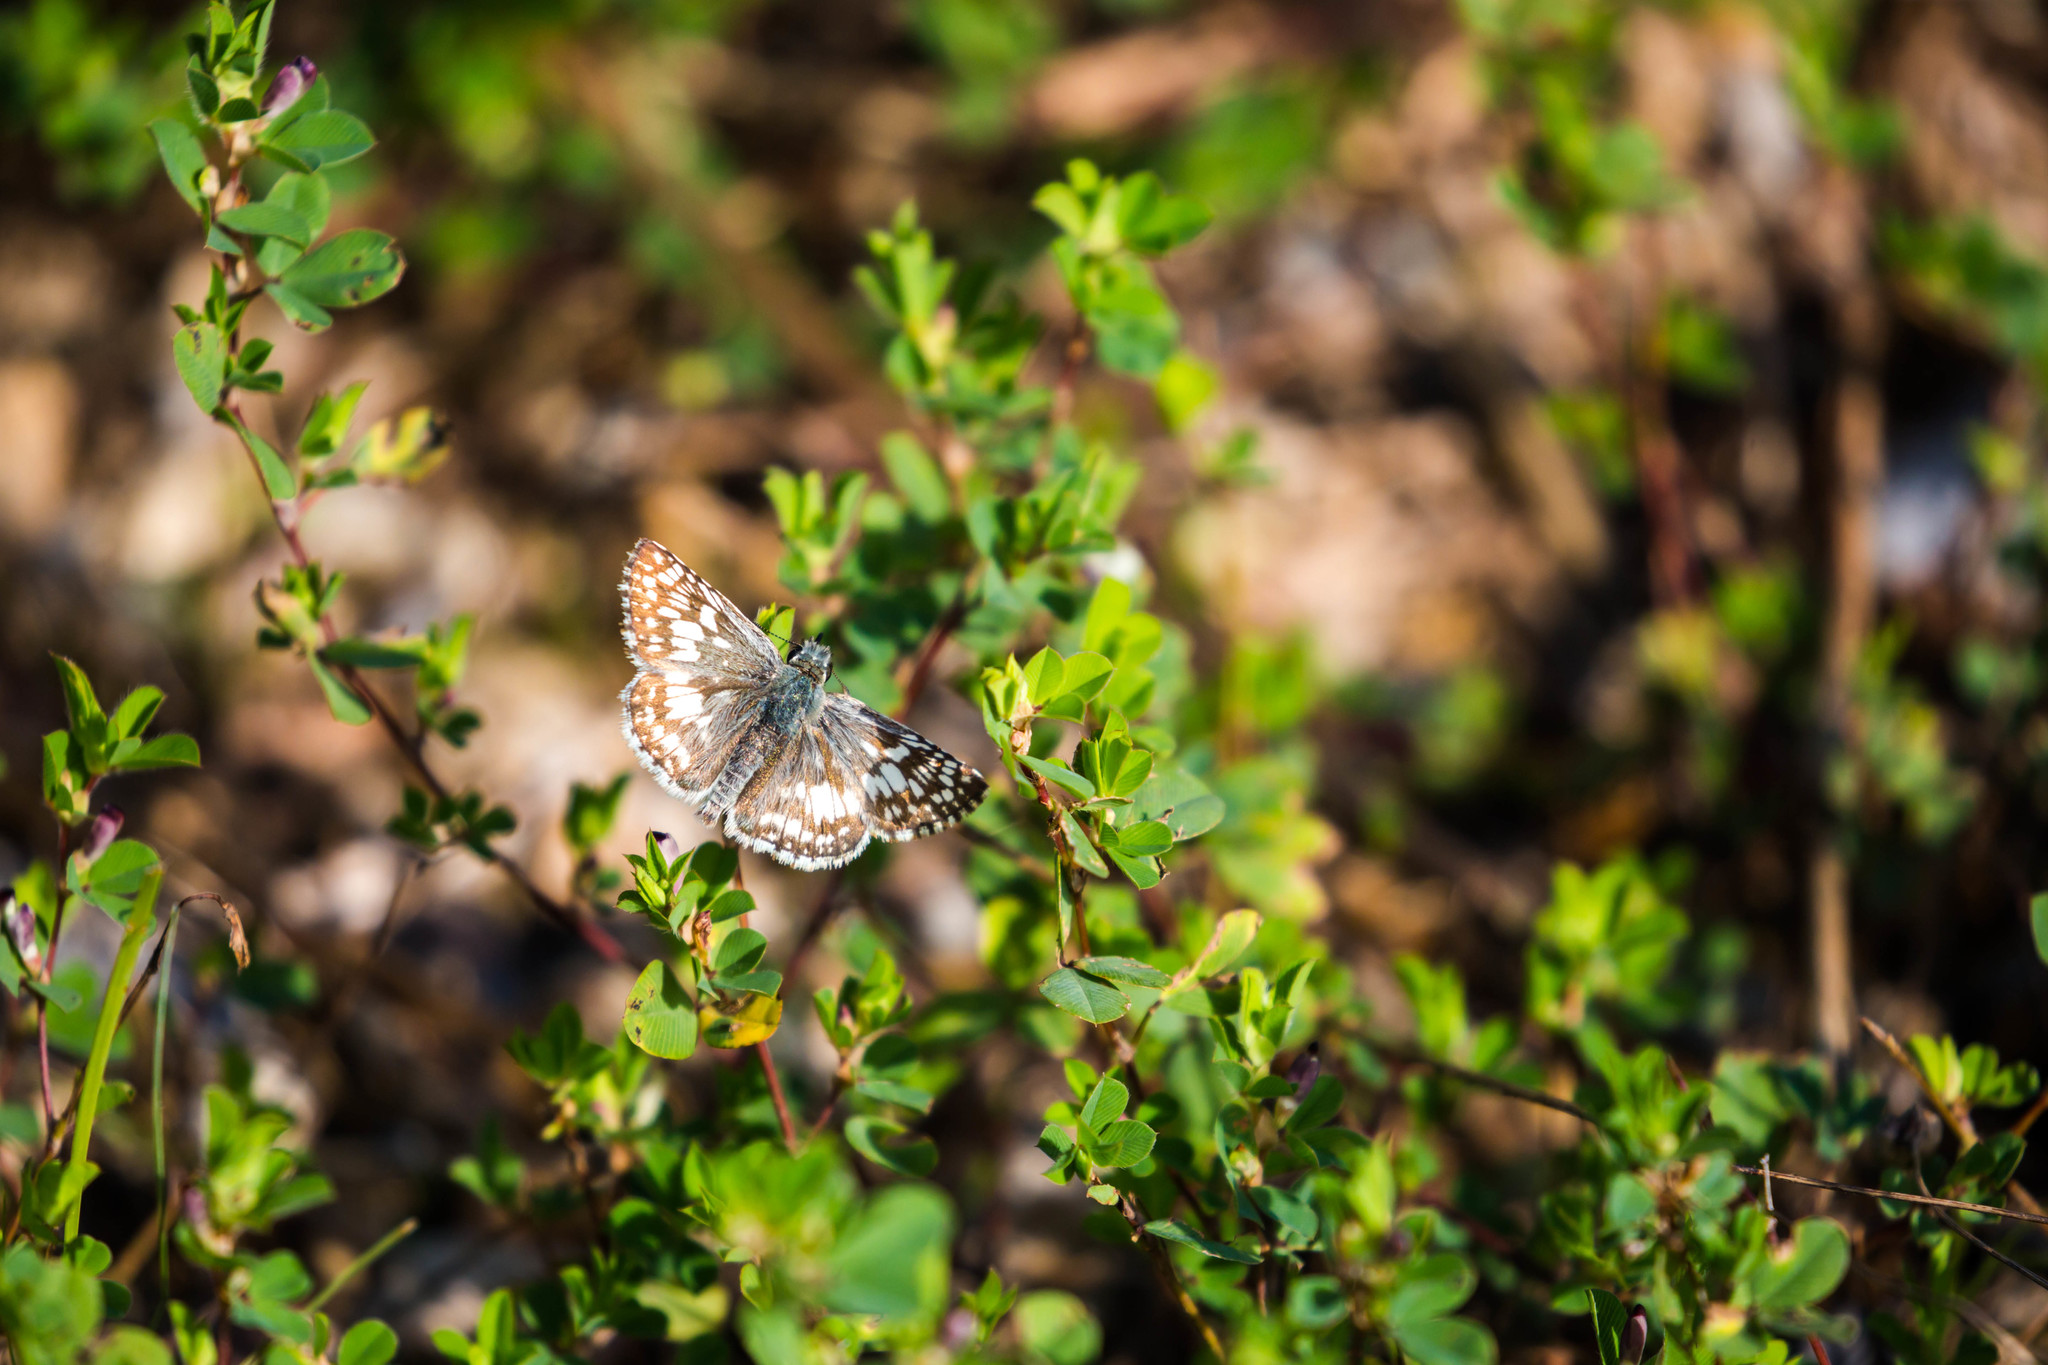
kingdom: Animalia
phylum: Arthropoda
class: Insecta
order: Lepidoptera
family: Hesperiidae
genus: Burnsius
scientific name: Burnsius communis
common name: Common checkered-skipper
